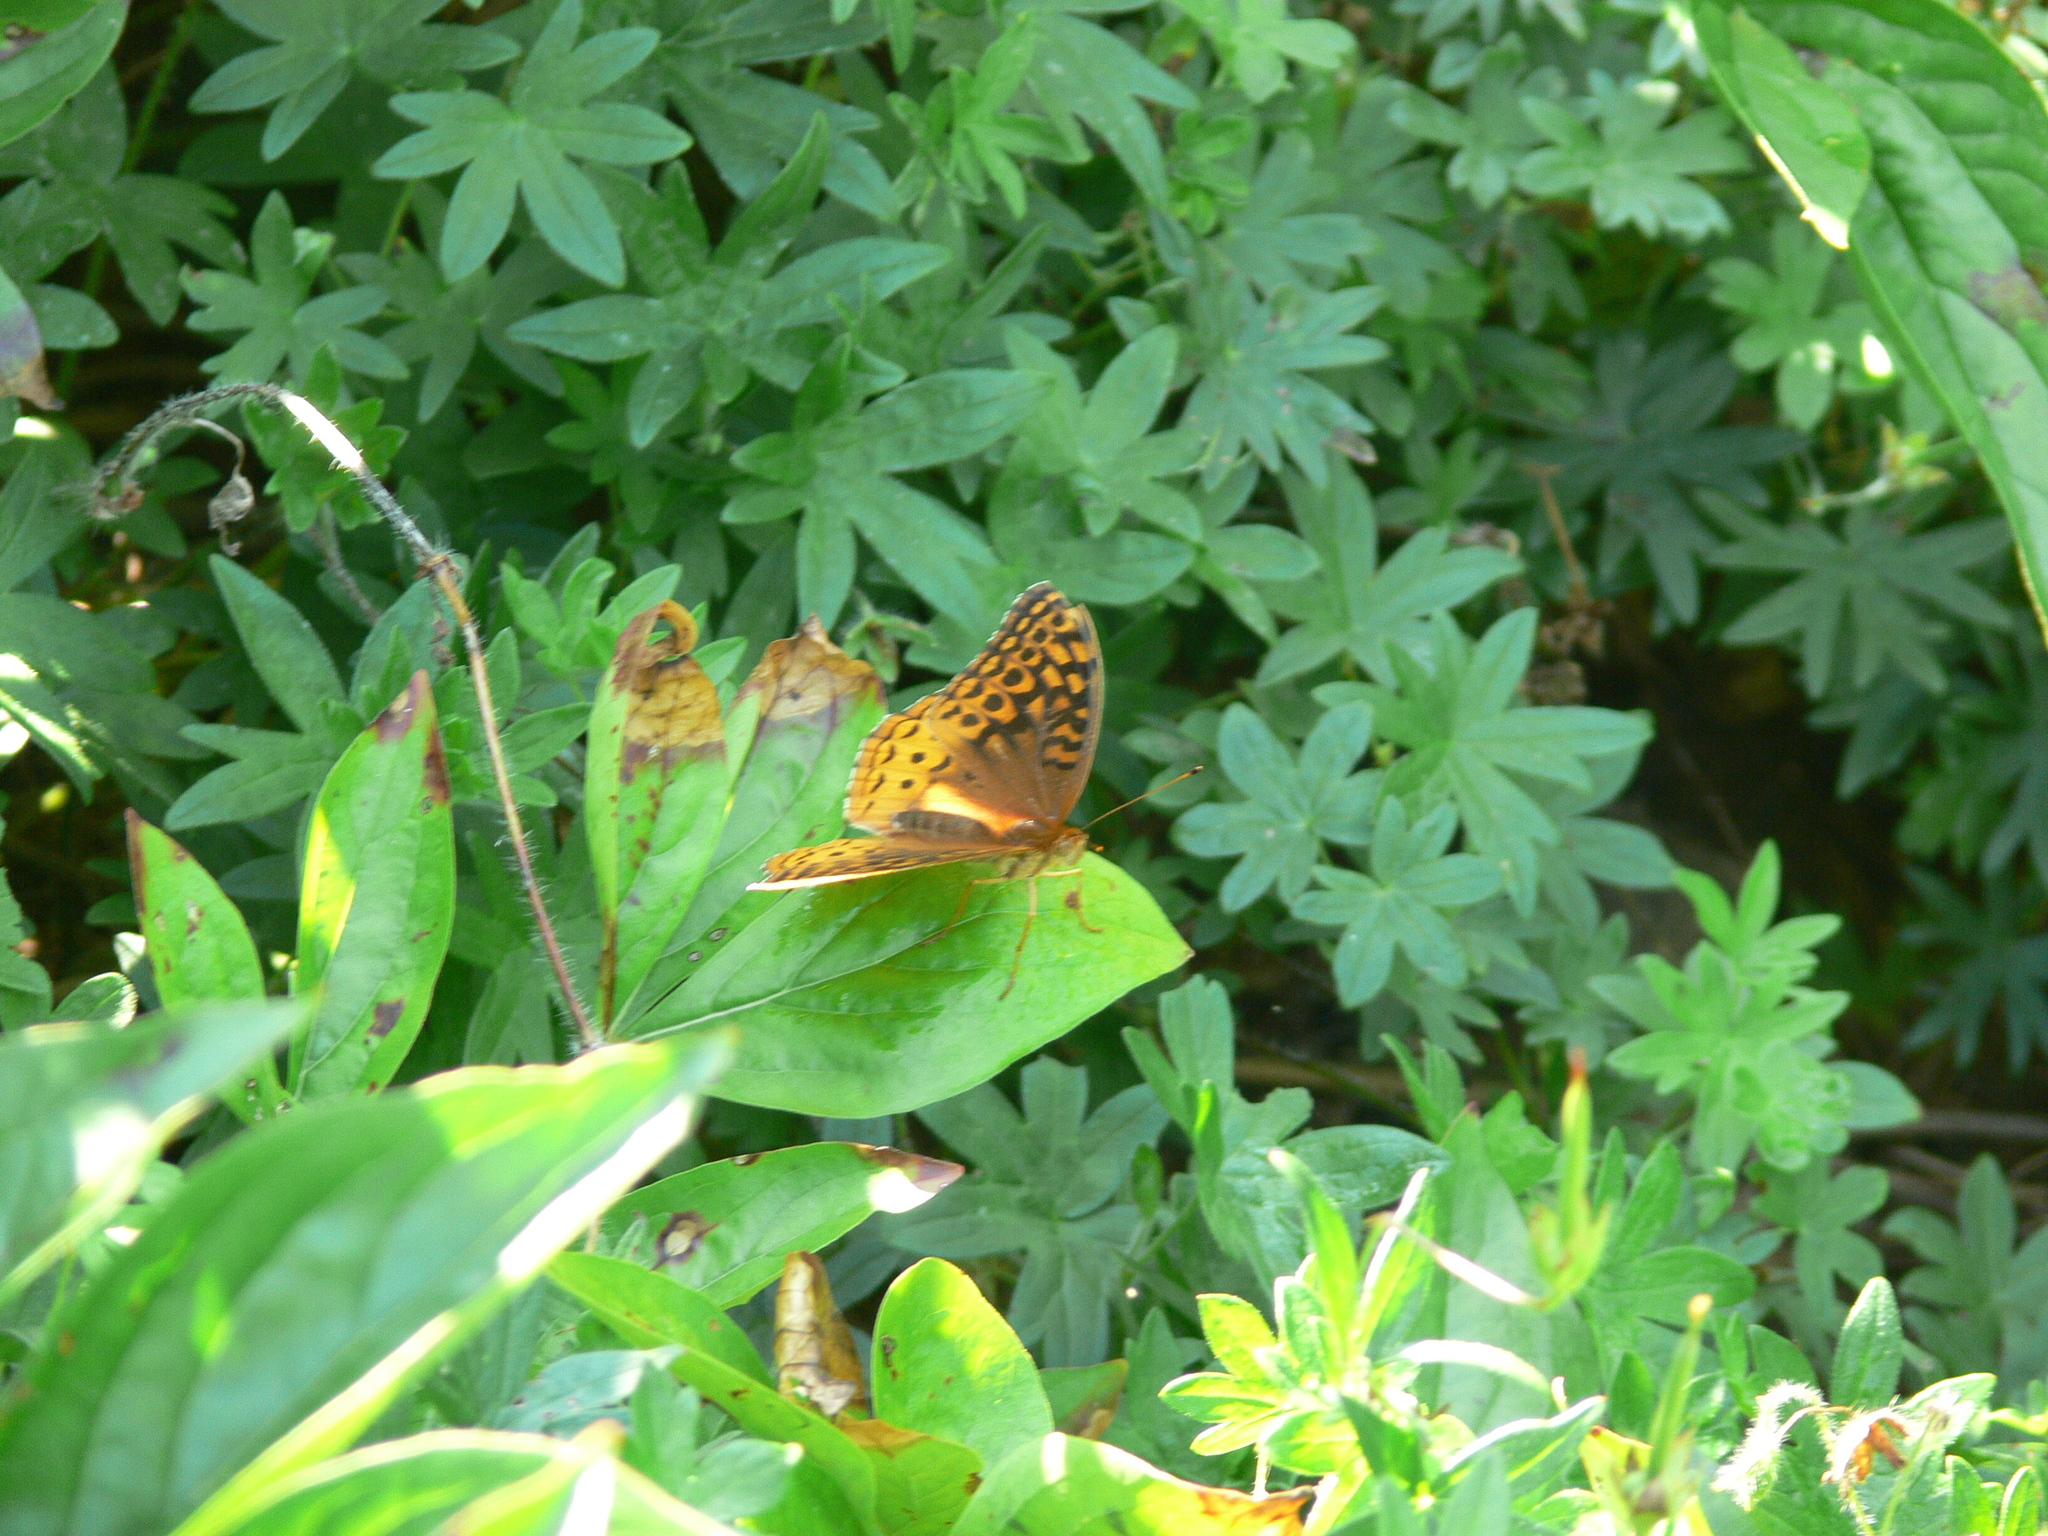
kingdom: Animalia
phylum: Arthropoda
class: Insecta
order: Lepidoptera
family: Nymphalidae
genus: Speyeria
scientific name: Speyeria cybele
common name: Great spangled fritillary
